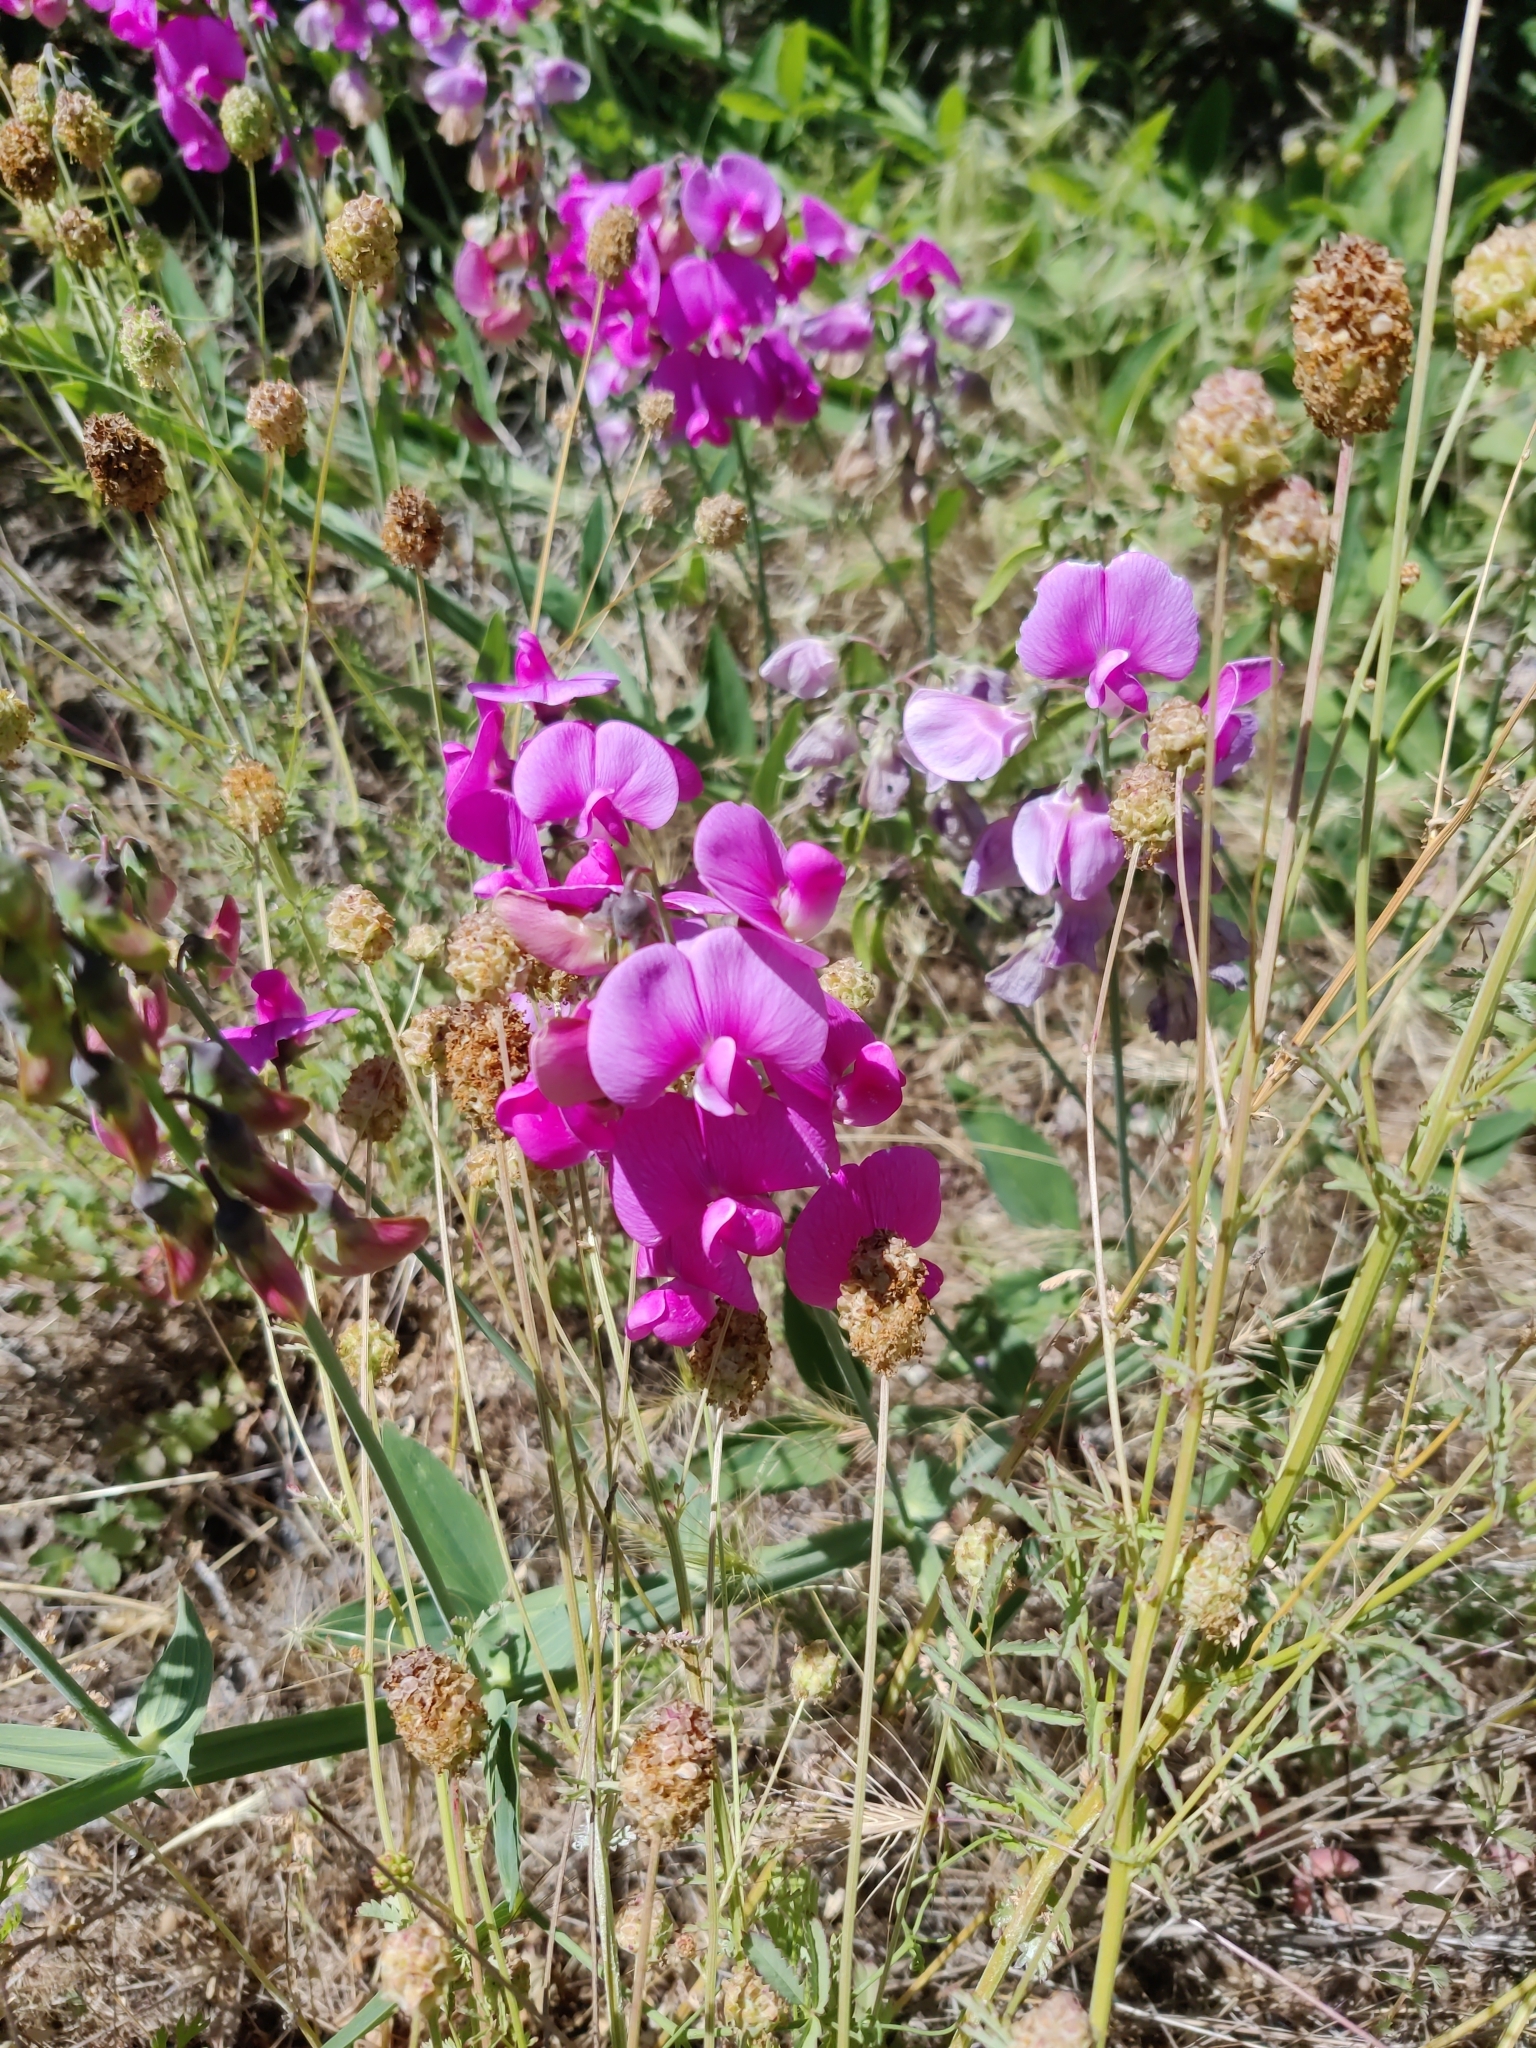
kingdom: Plantae
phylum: Tracheophyta
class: Magnoliopsida
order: Fabales
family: Fabaceae
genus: Lathyrus
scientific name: Lathyrus latifolius
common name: Perennial pea
